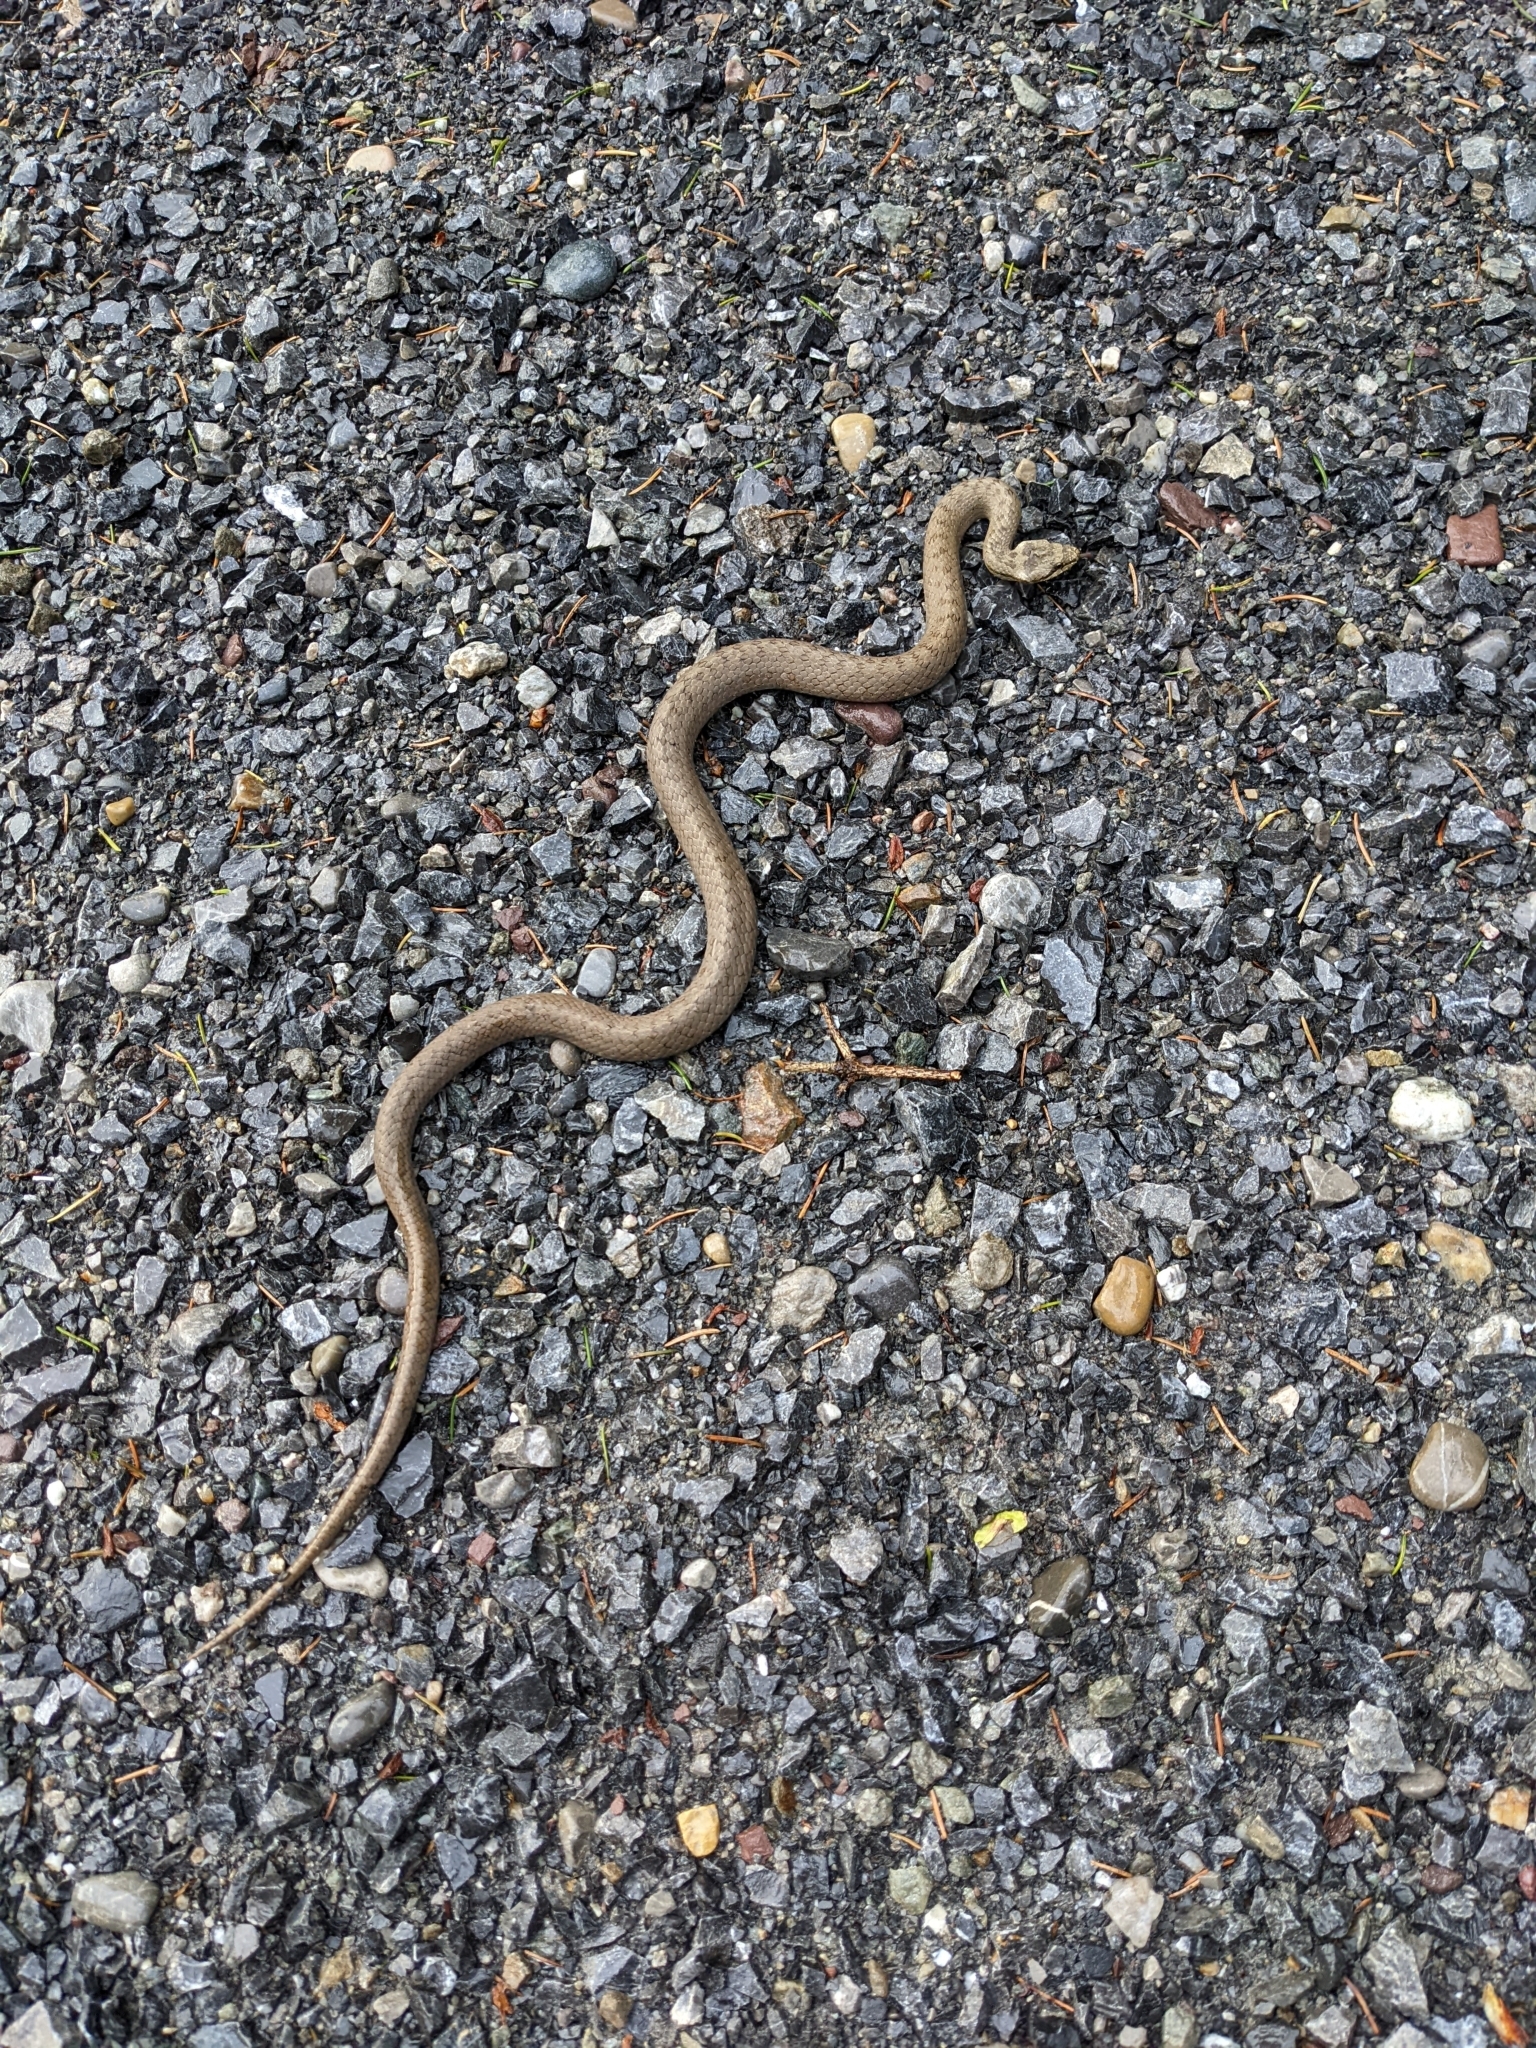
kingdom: Animalia
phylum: Chordata
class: Squamata
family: Colubridae
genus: Coronella
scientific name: Coronella austriaca
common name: Smooth snake
